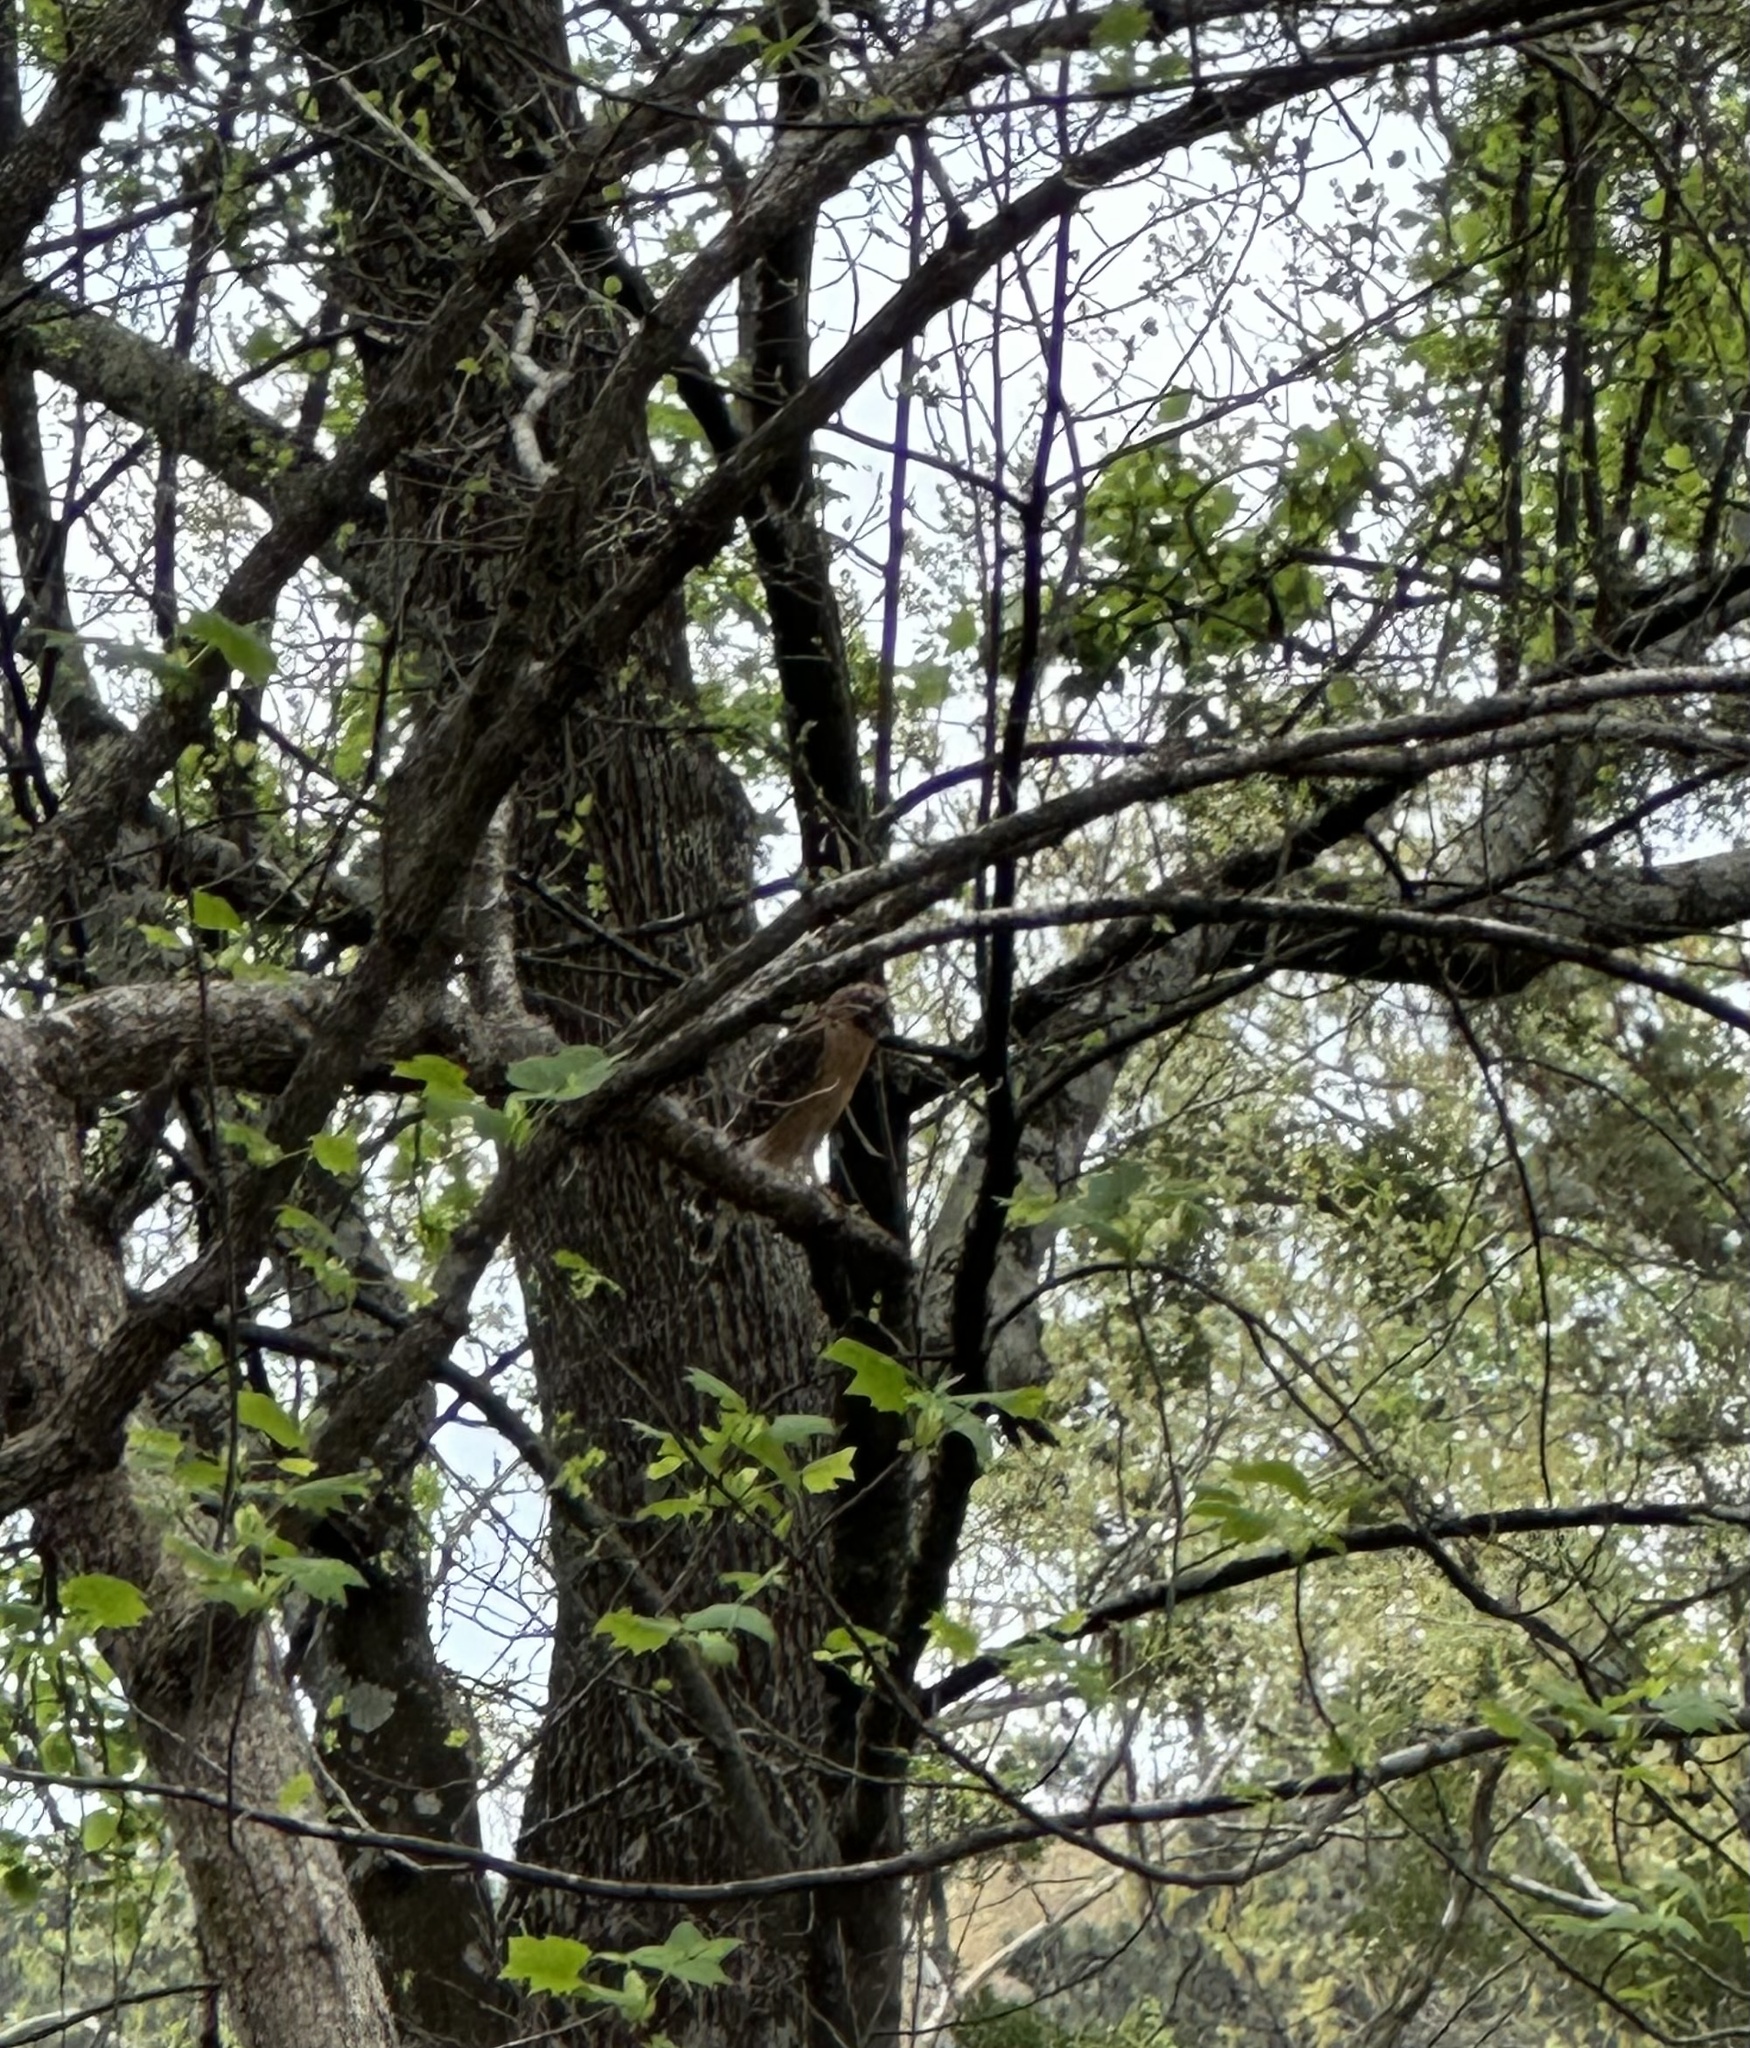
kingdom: Animalia
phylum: Chordata
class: Aves
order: Accipitriformes
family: Accipitridae
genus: Buteo
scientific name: Buteo lineatus
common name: Red-shouldered hawk
